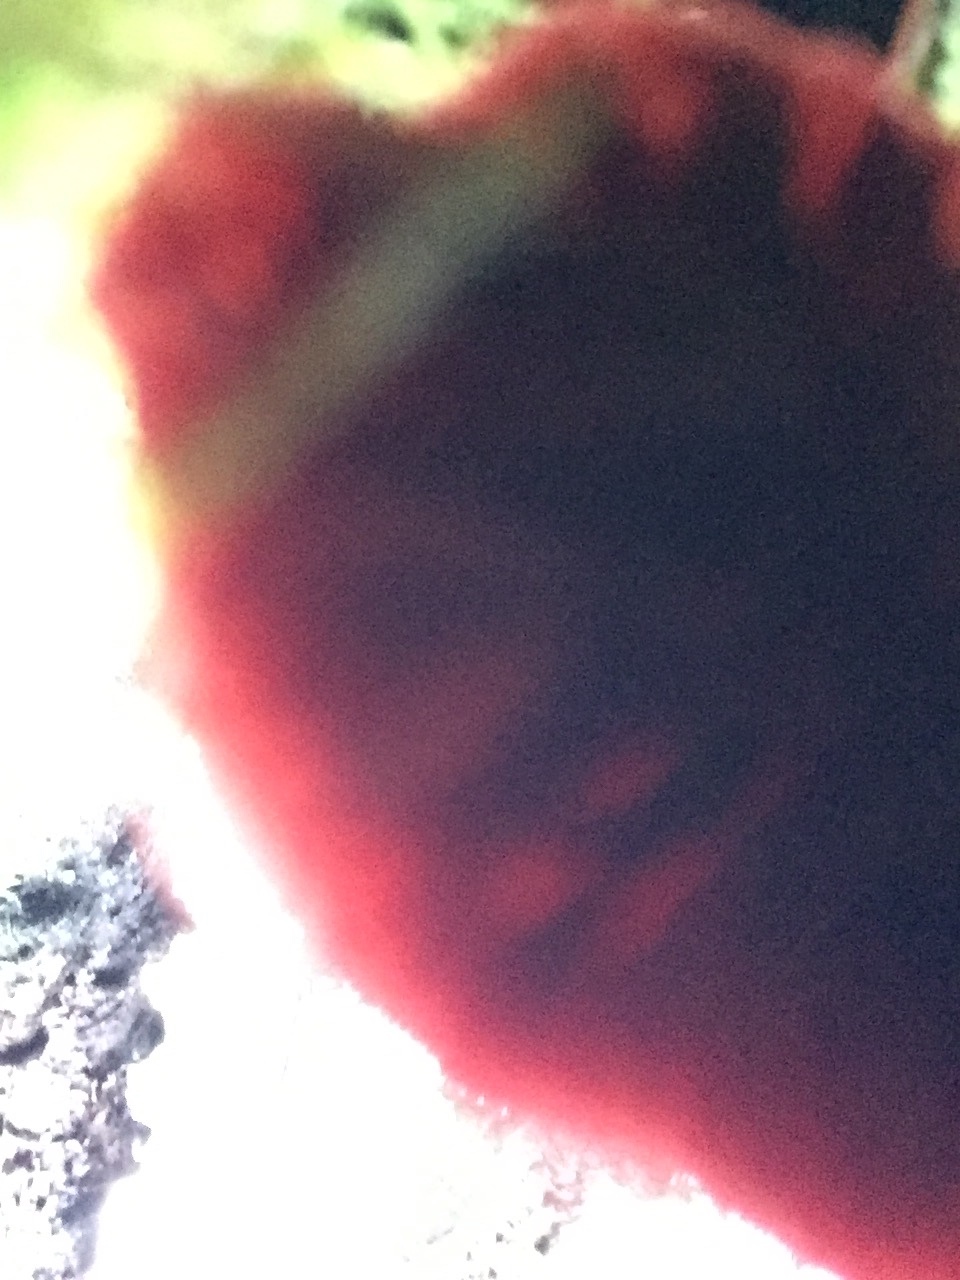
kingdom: Fungi
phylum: Basidiomycota
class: Agaricomycetes
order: Agaricales
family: Tubariaceae
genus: Tubaria
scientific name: Tubaria punicea
